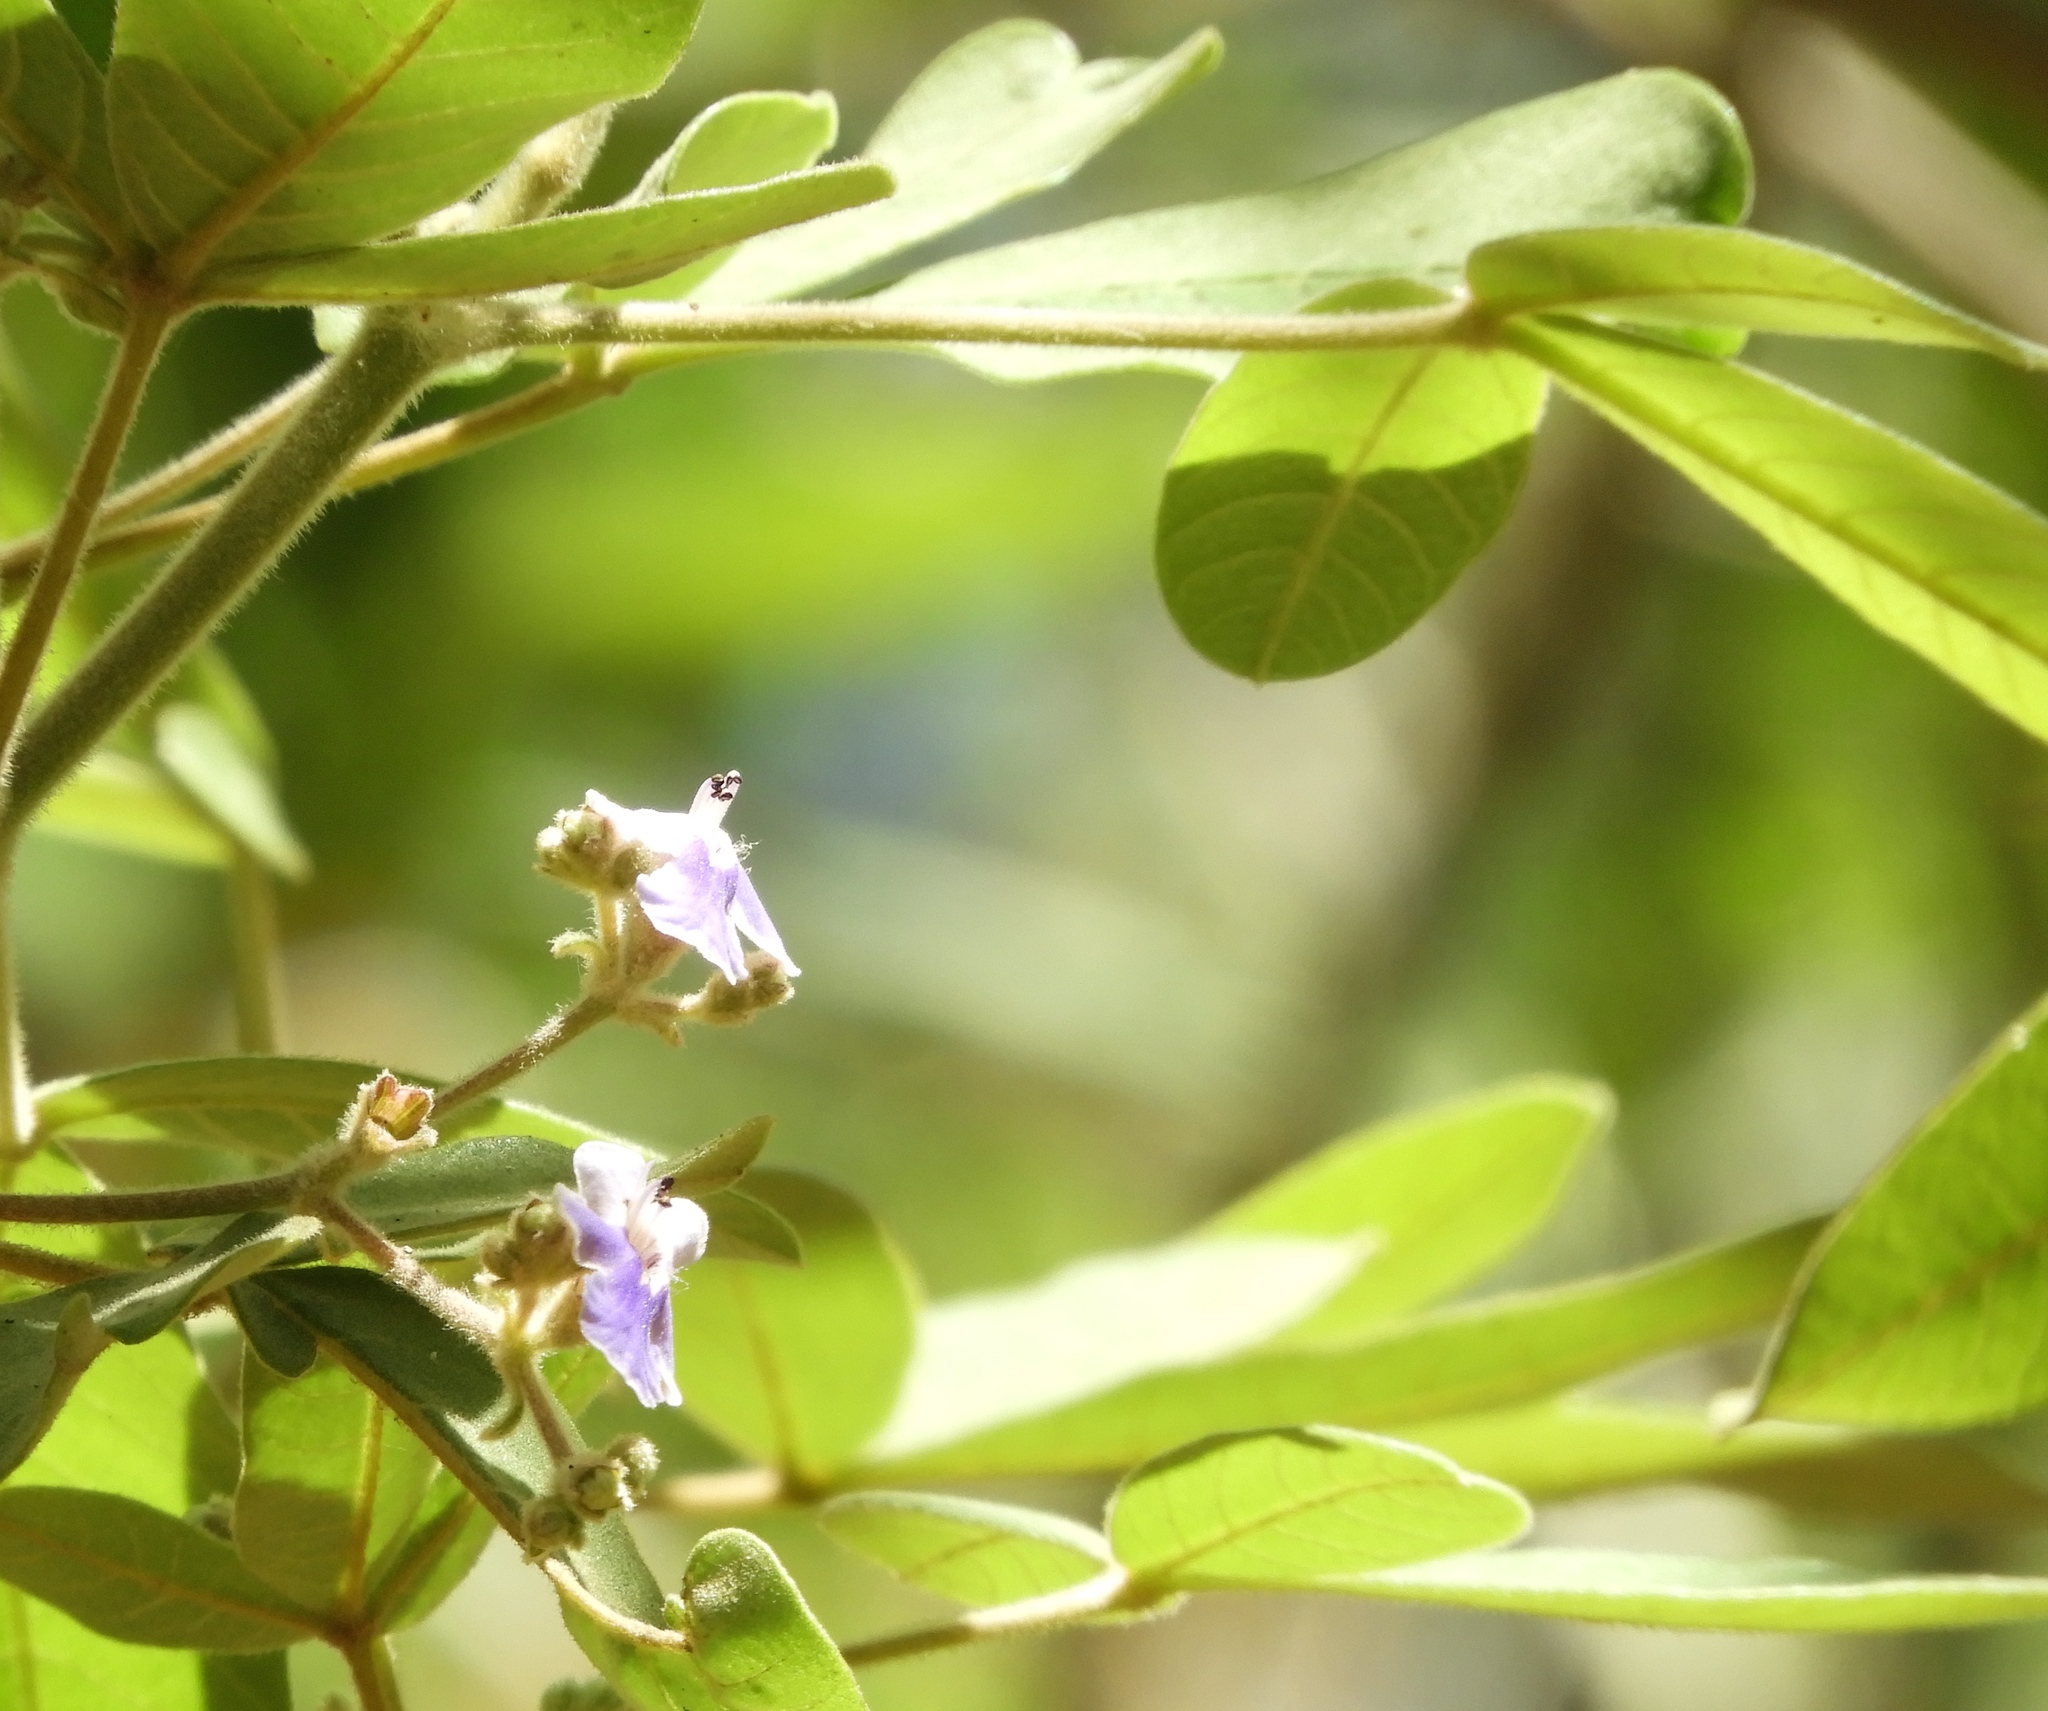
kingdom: Plantae
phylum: Tracheophyta
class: Magnoliopsida
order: Lamiales
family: Lamiaceae
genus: Vitex
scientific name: Vitex mollis
